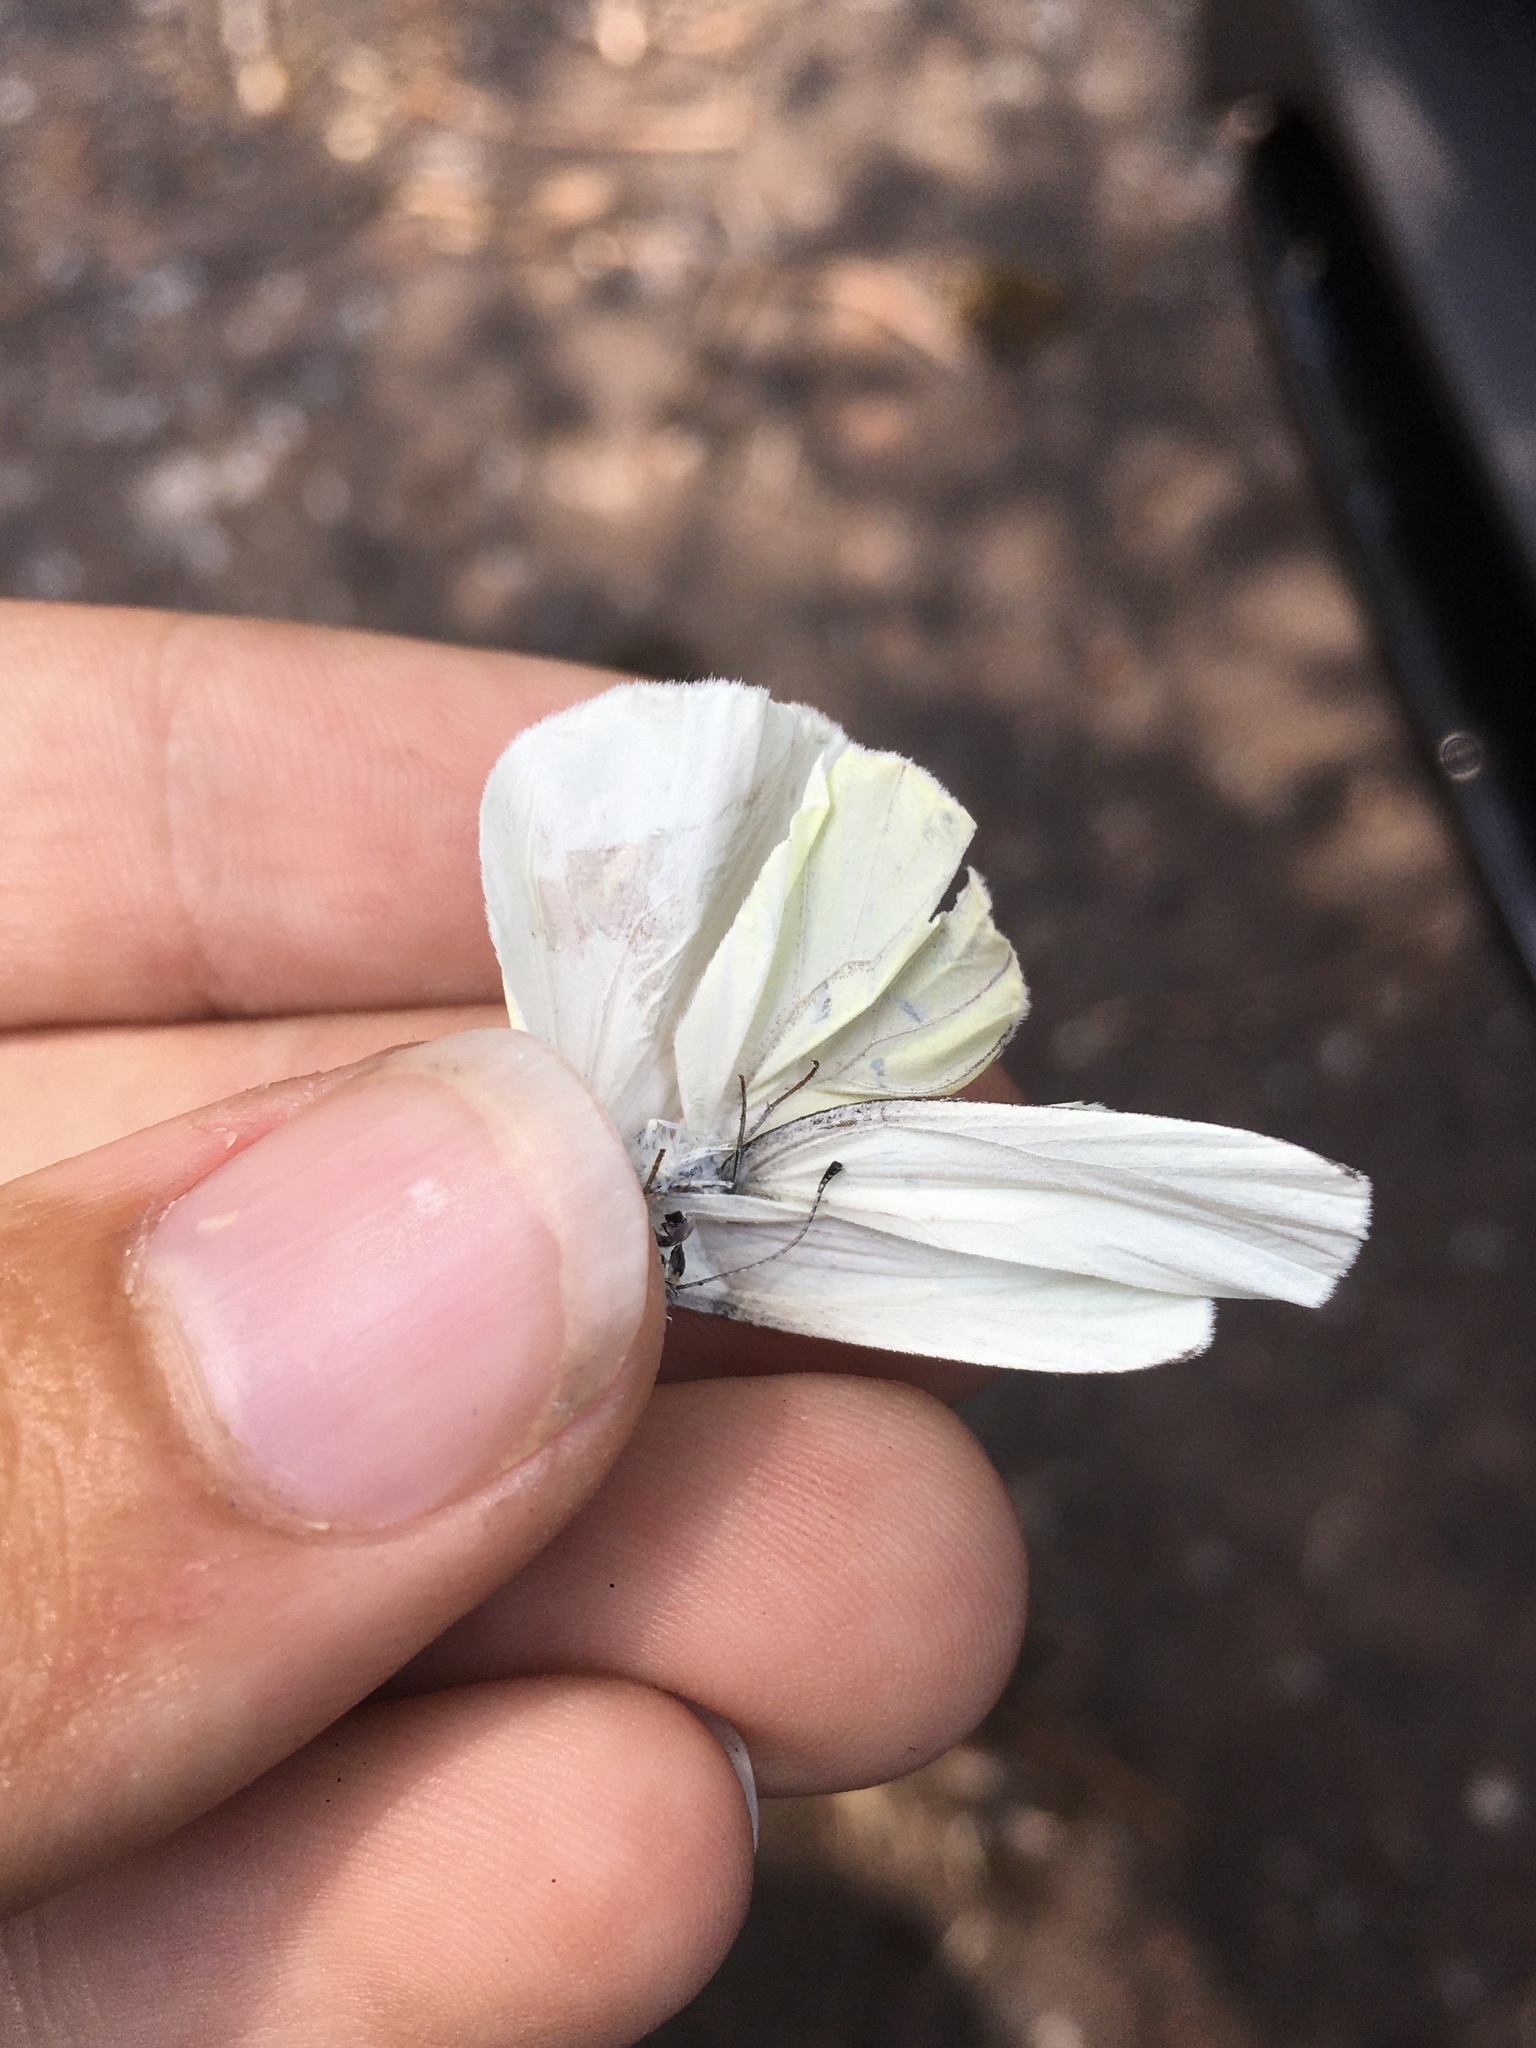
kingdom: Animalia
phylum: Arthropoda
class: Insecta
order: Lepidoptera
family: Pieridae
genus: Pieris
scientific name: Pieris oleracea
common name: Mustard white
